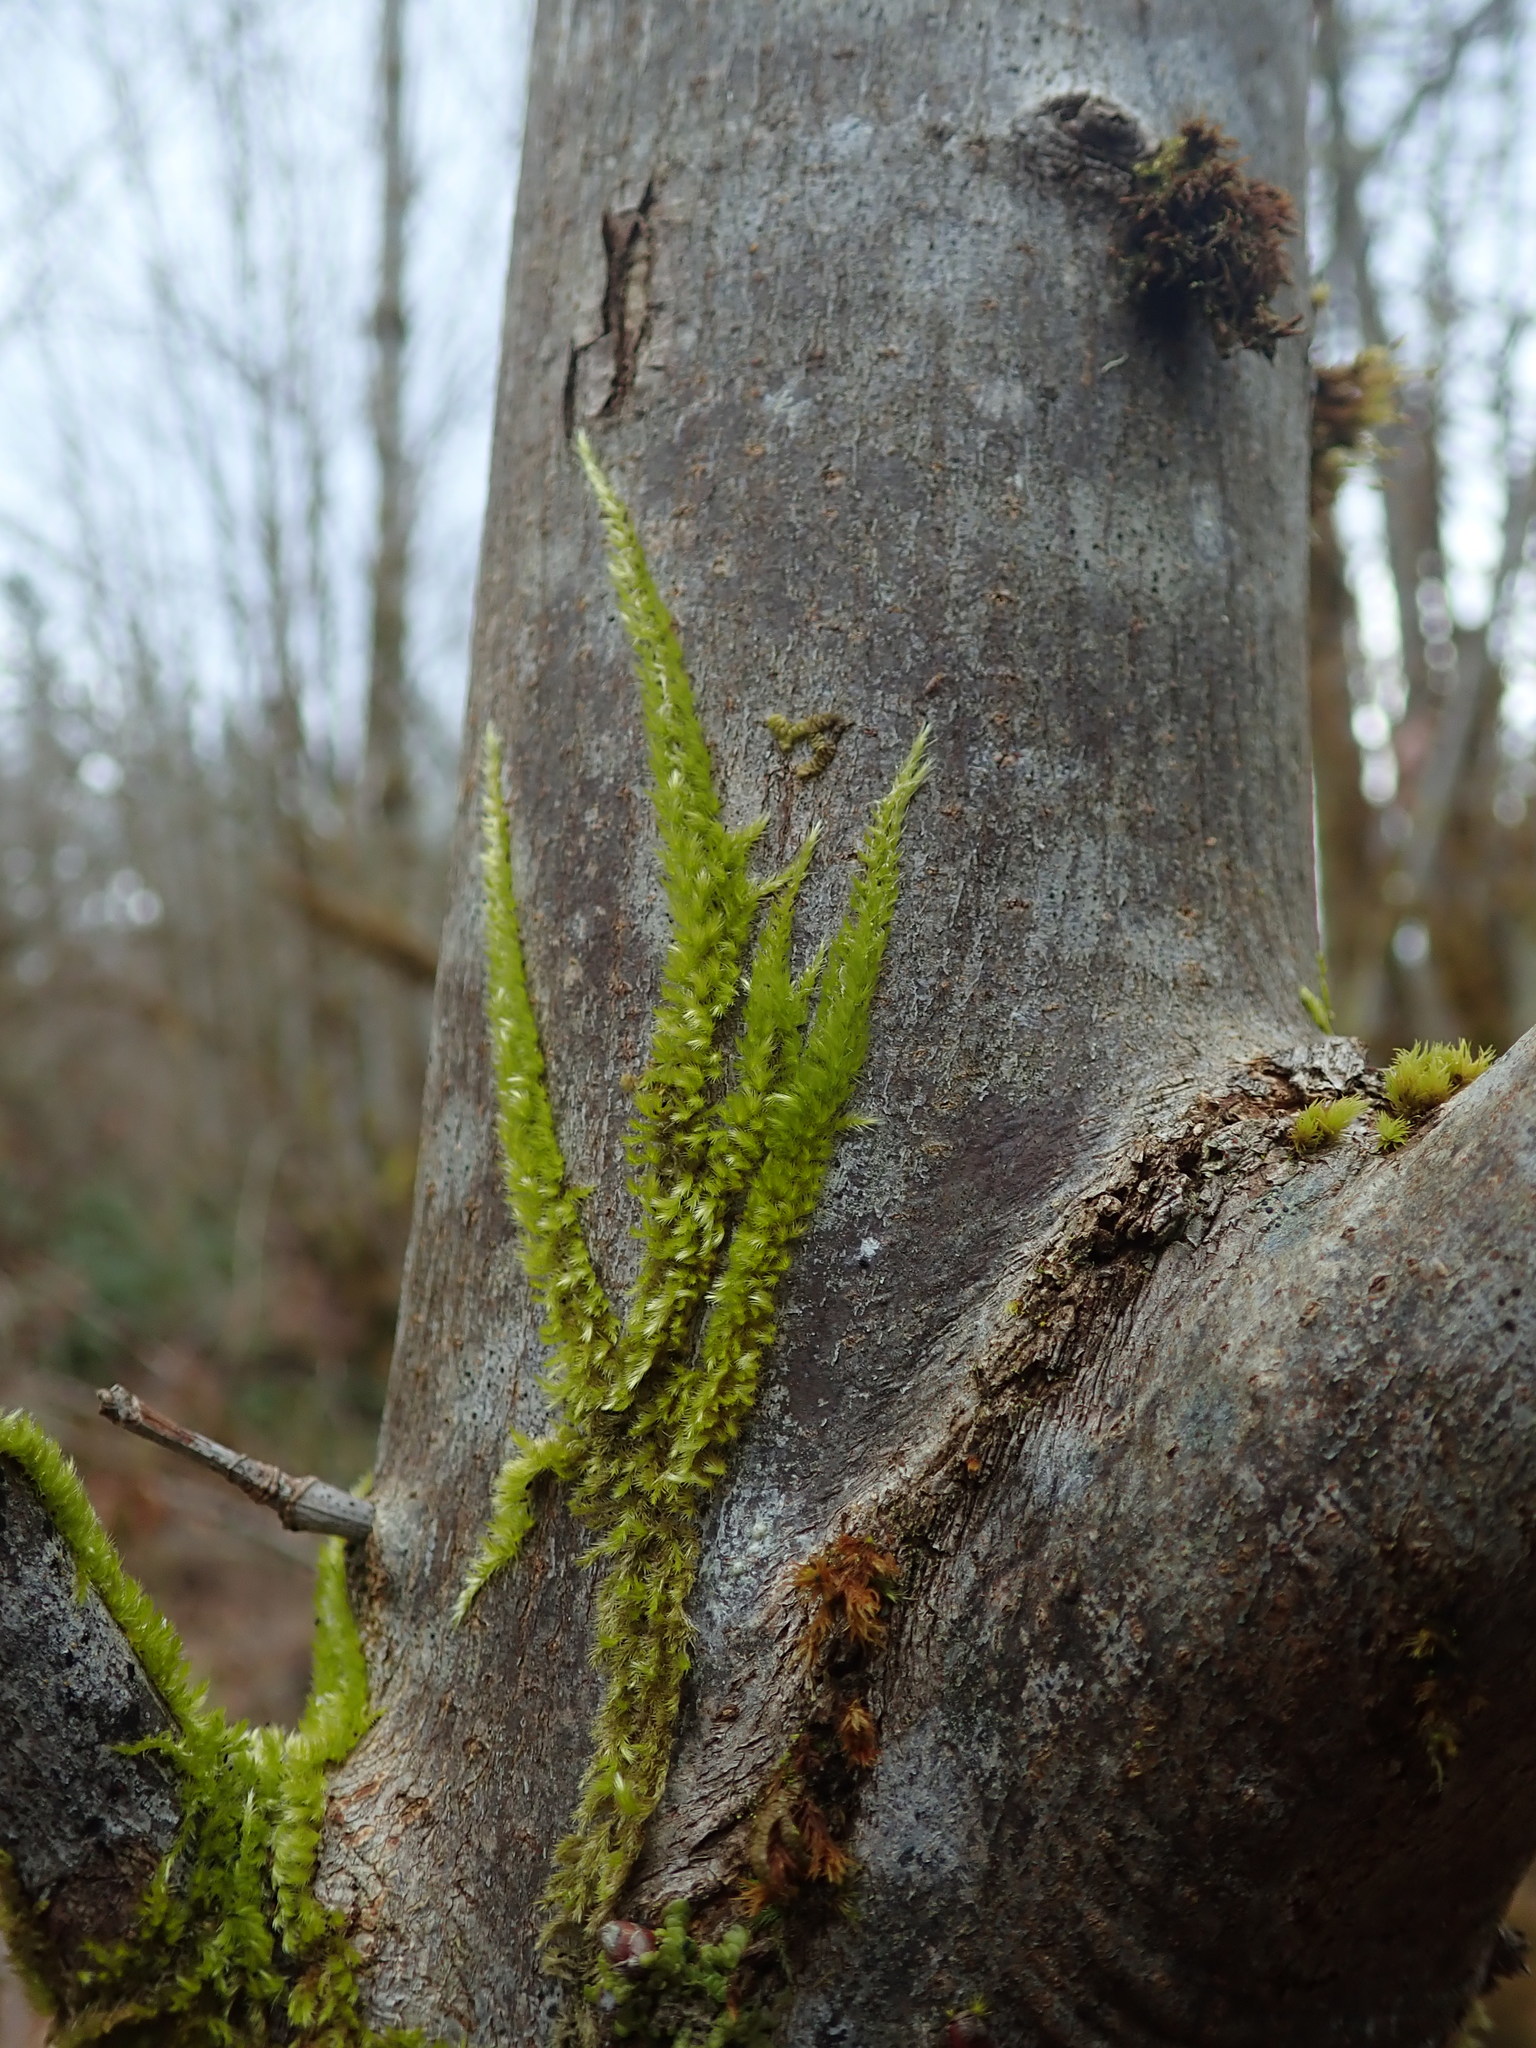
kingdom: Plantae
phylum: Bryophyta
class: Bryopsida
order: Hypnales
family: Brachytheciaceae
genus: Homalothecium
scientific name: Homalothecium nuttallii
